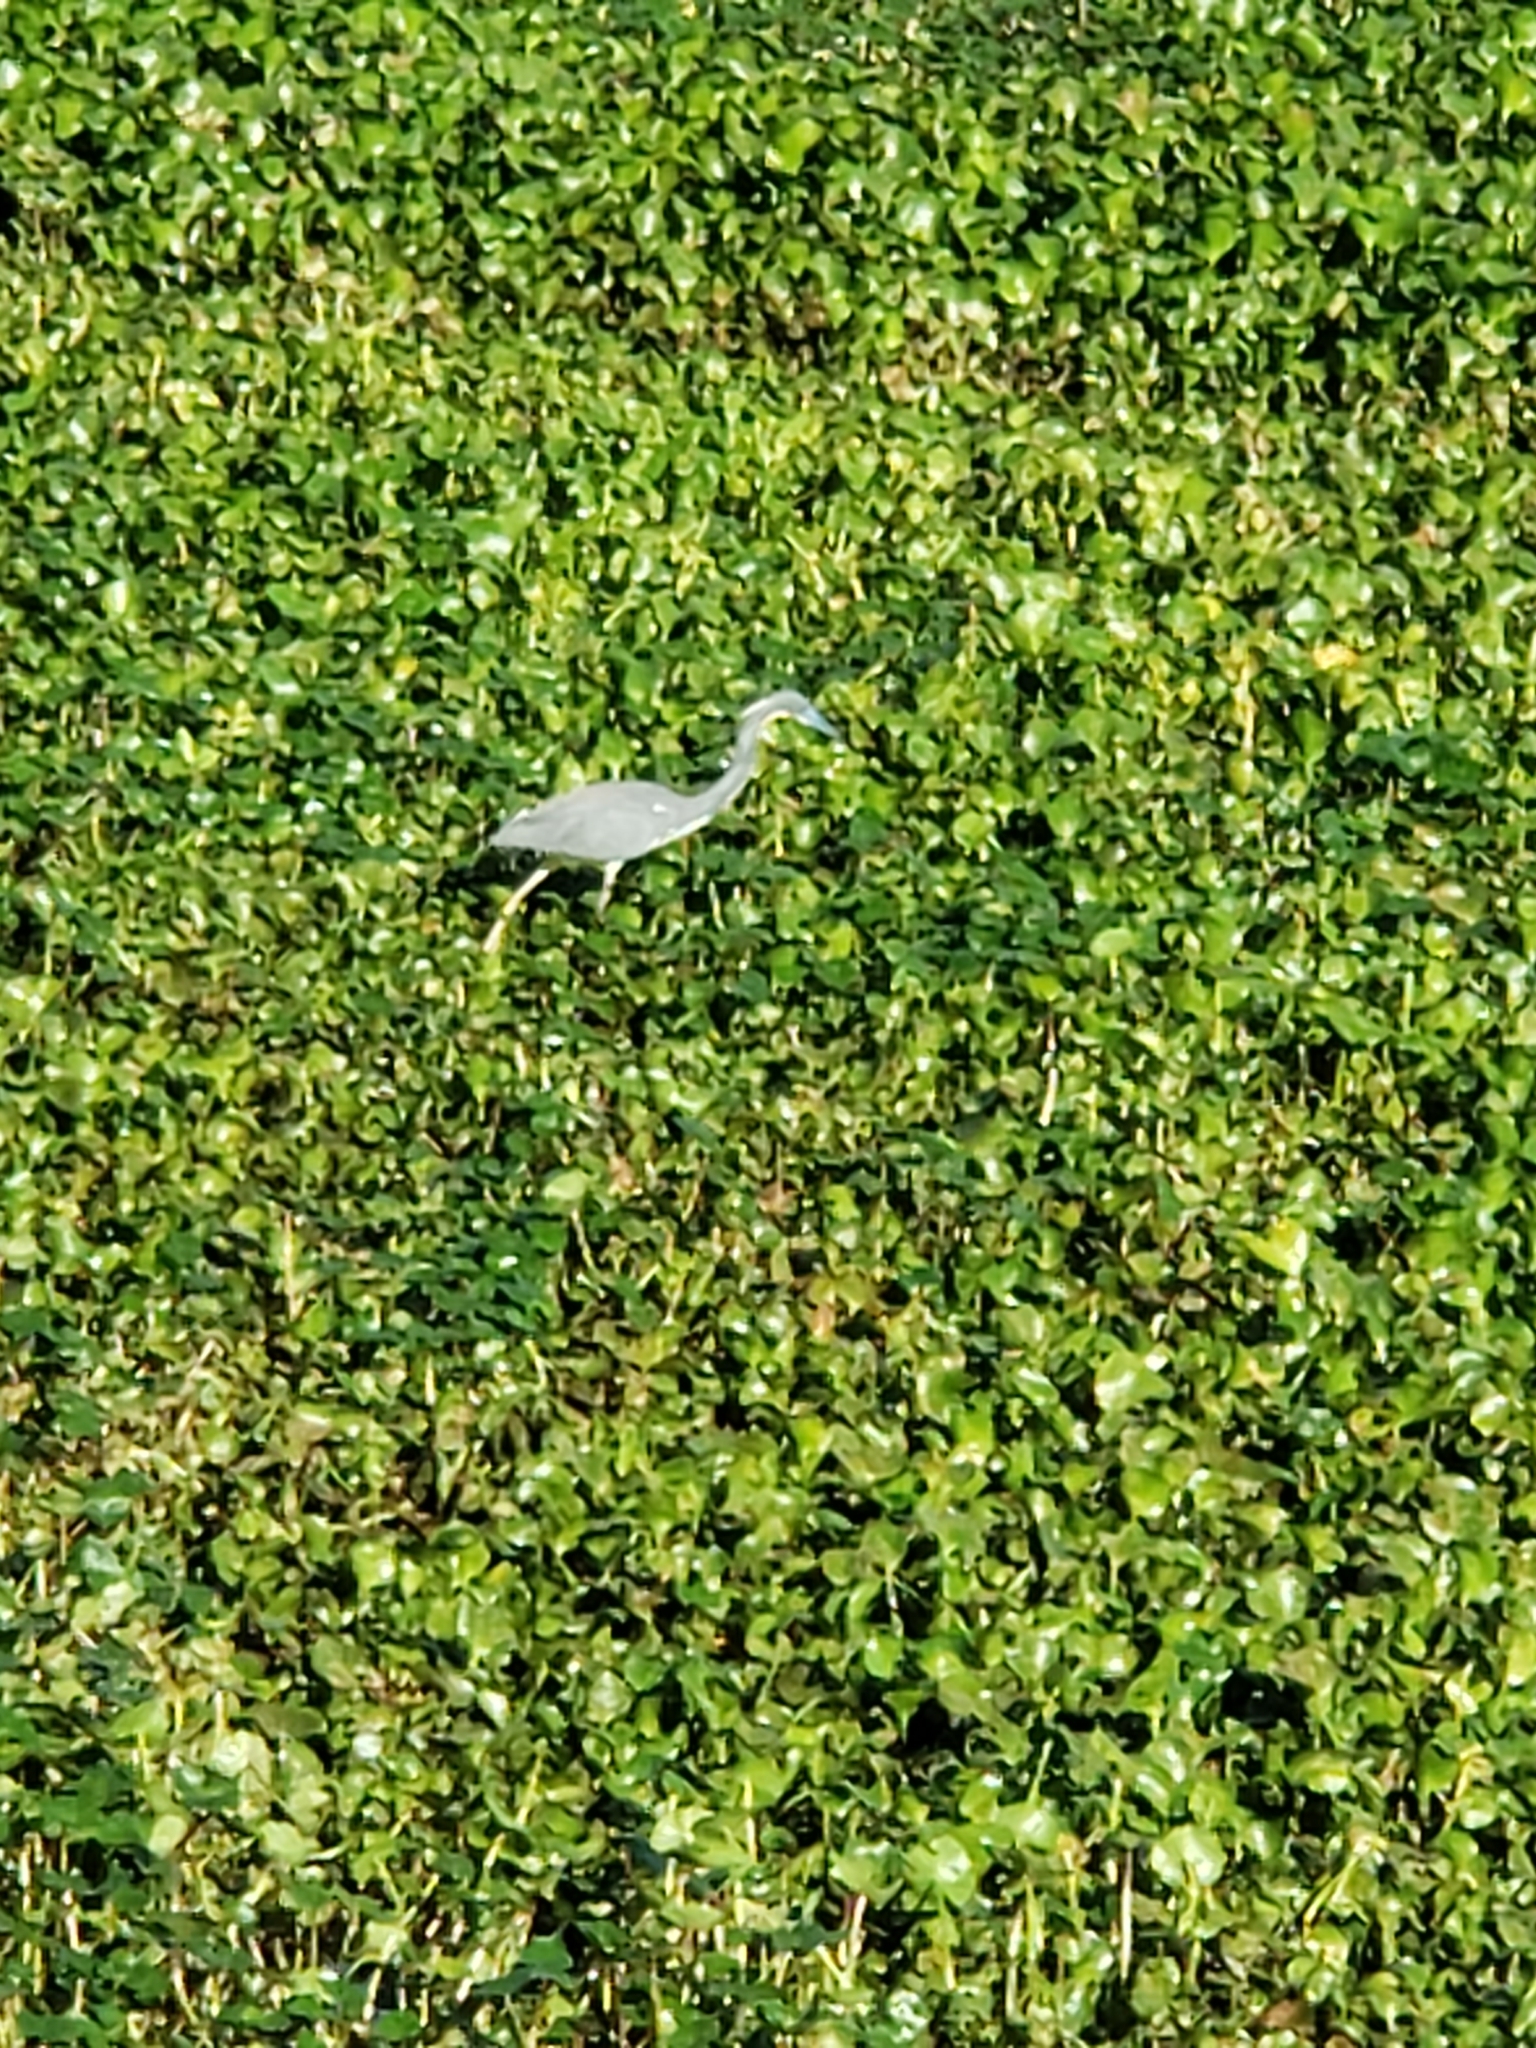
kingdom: Animalia
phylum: Chordata
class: Aves
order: Pelecaniformes
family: Ardeidae
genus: Egretta
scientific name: Egretta tricolor
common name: Tricolored heron
